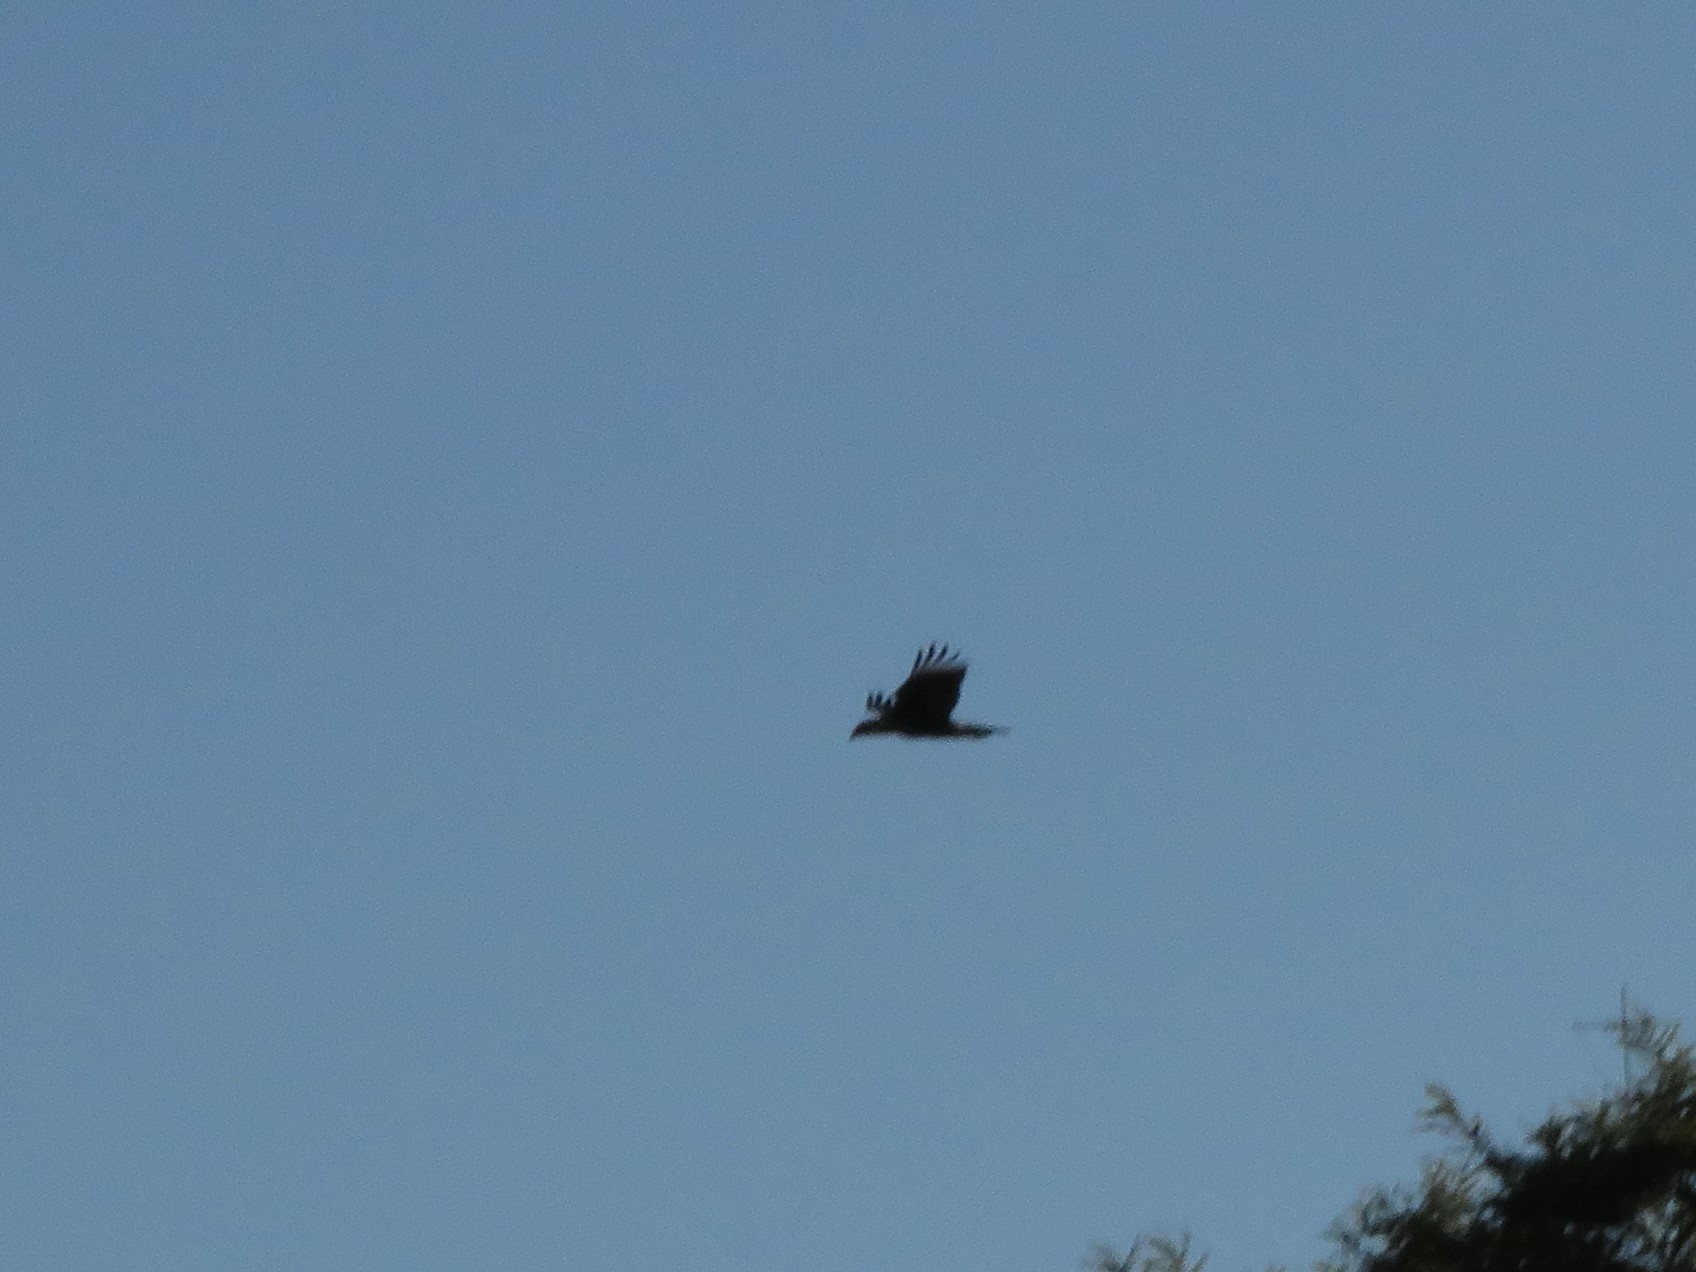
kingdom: Animalia
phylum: Chordata
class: Aves
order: Falconiformes
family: Falconidae
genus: Caracara
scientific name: Caracara plancus
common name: Southern caracara
